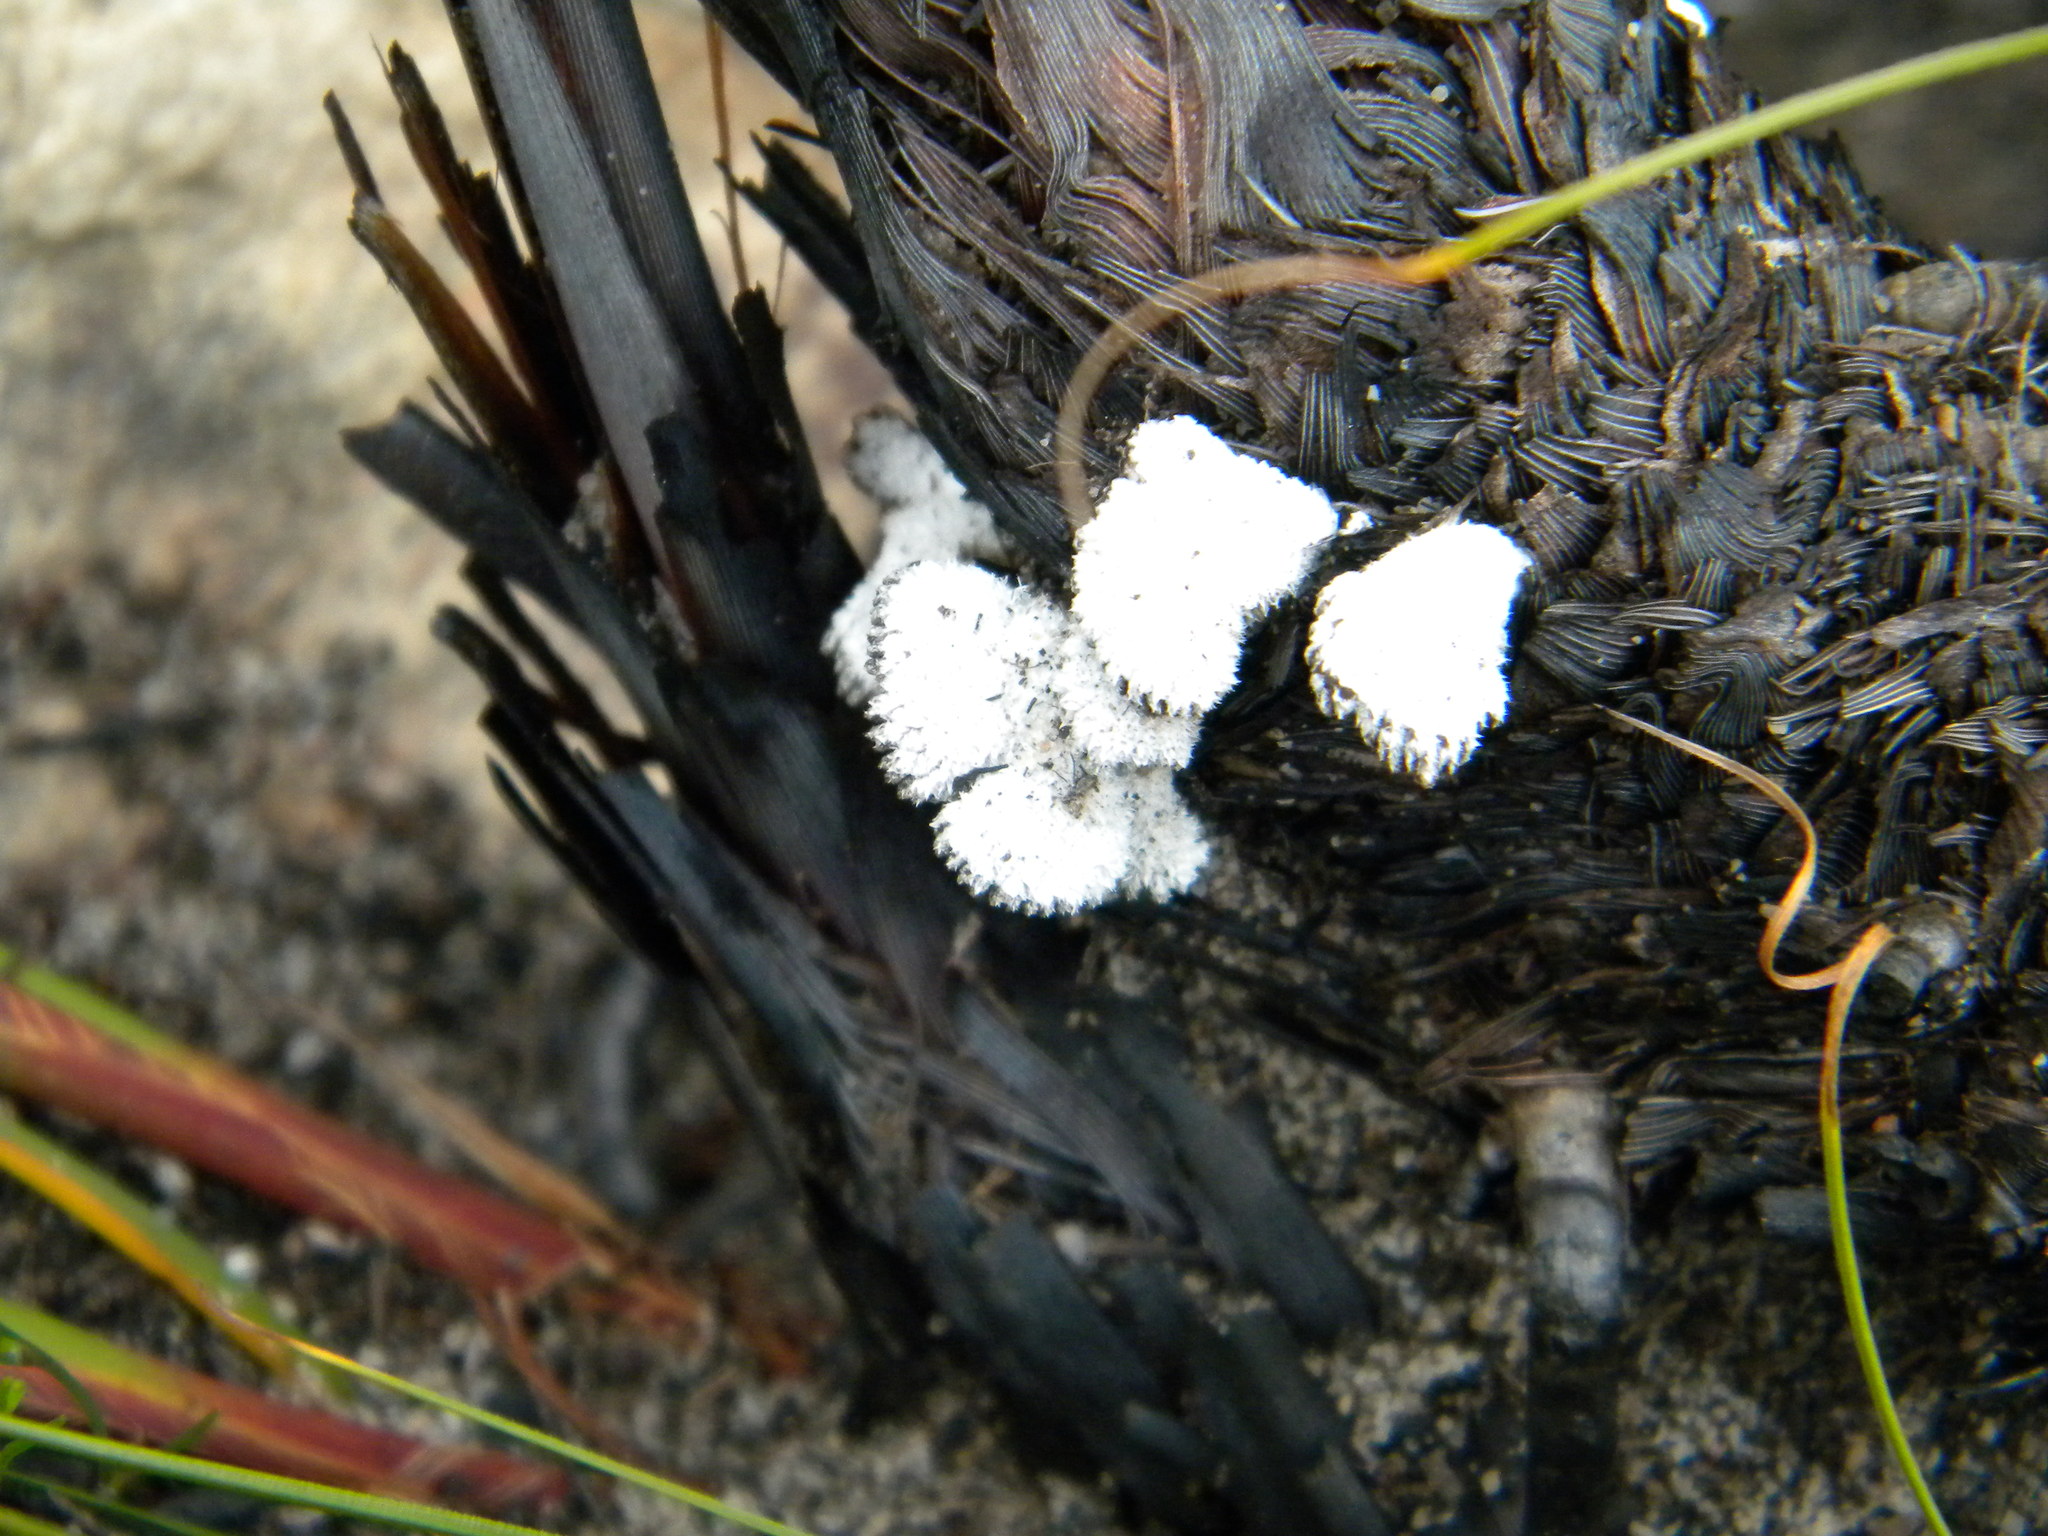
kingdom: Fungi
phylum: Basidiomycota
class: Agaricomycetes
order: Agaricales
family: Schizophyllaceae
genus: Schizophyllum
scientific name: Schizophyllum commune
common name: Common porecrust
